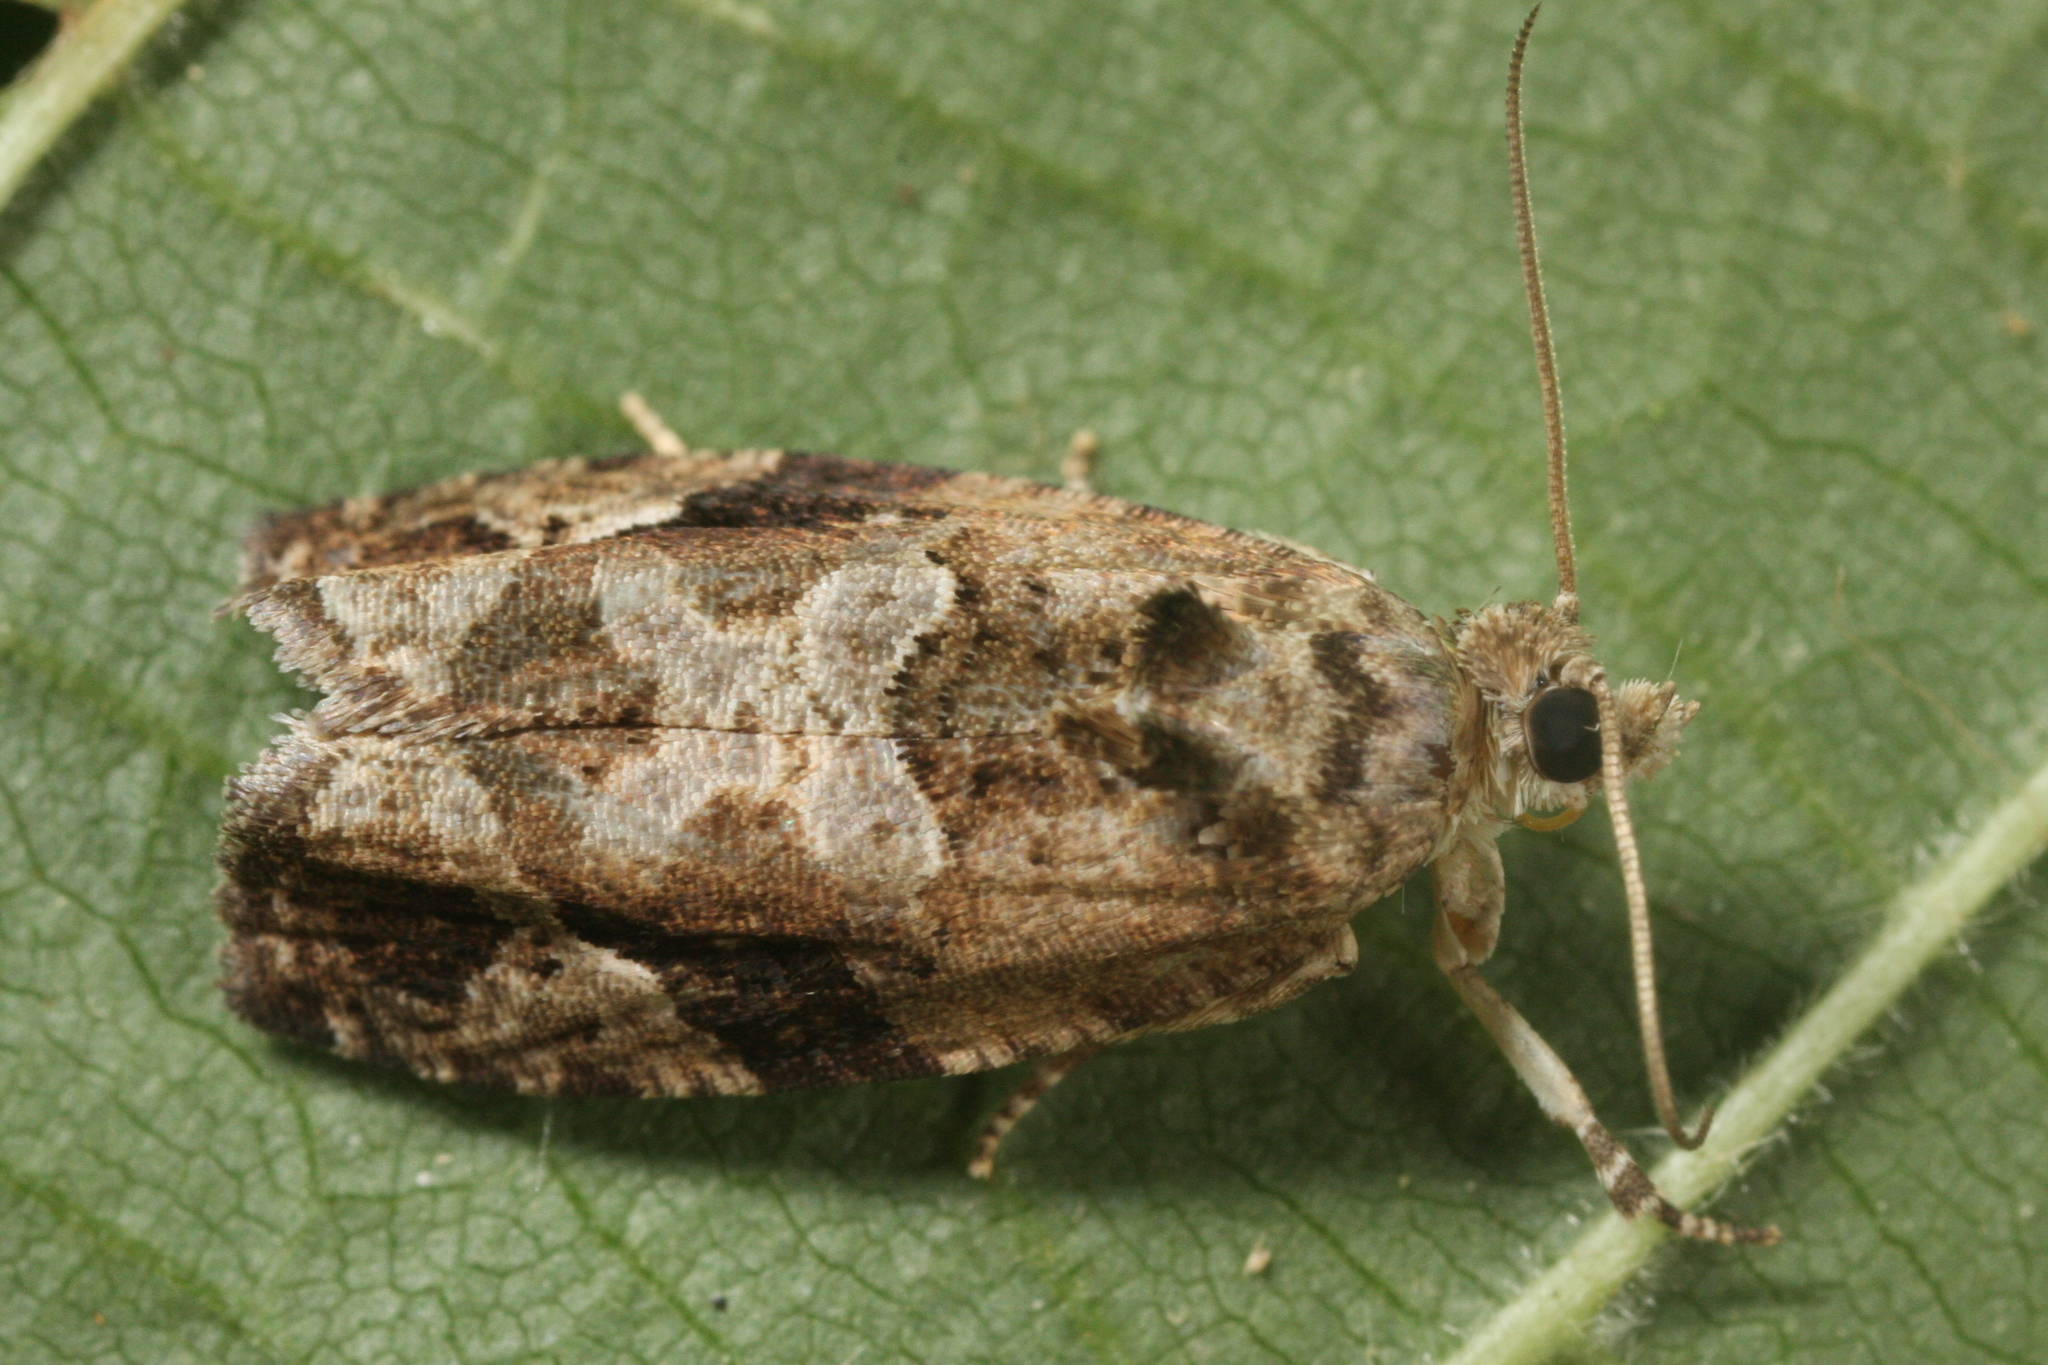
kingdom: Animalia
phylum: Arthropoda
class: Insecta
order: Lepidoptera
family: Tortricidae
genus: Eudemis
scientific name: Eudemis porphyrana
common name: Apple marble
